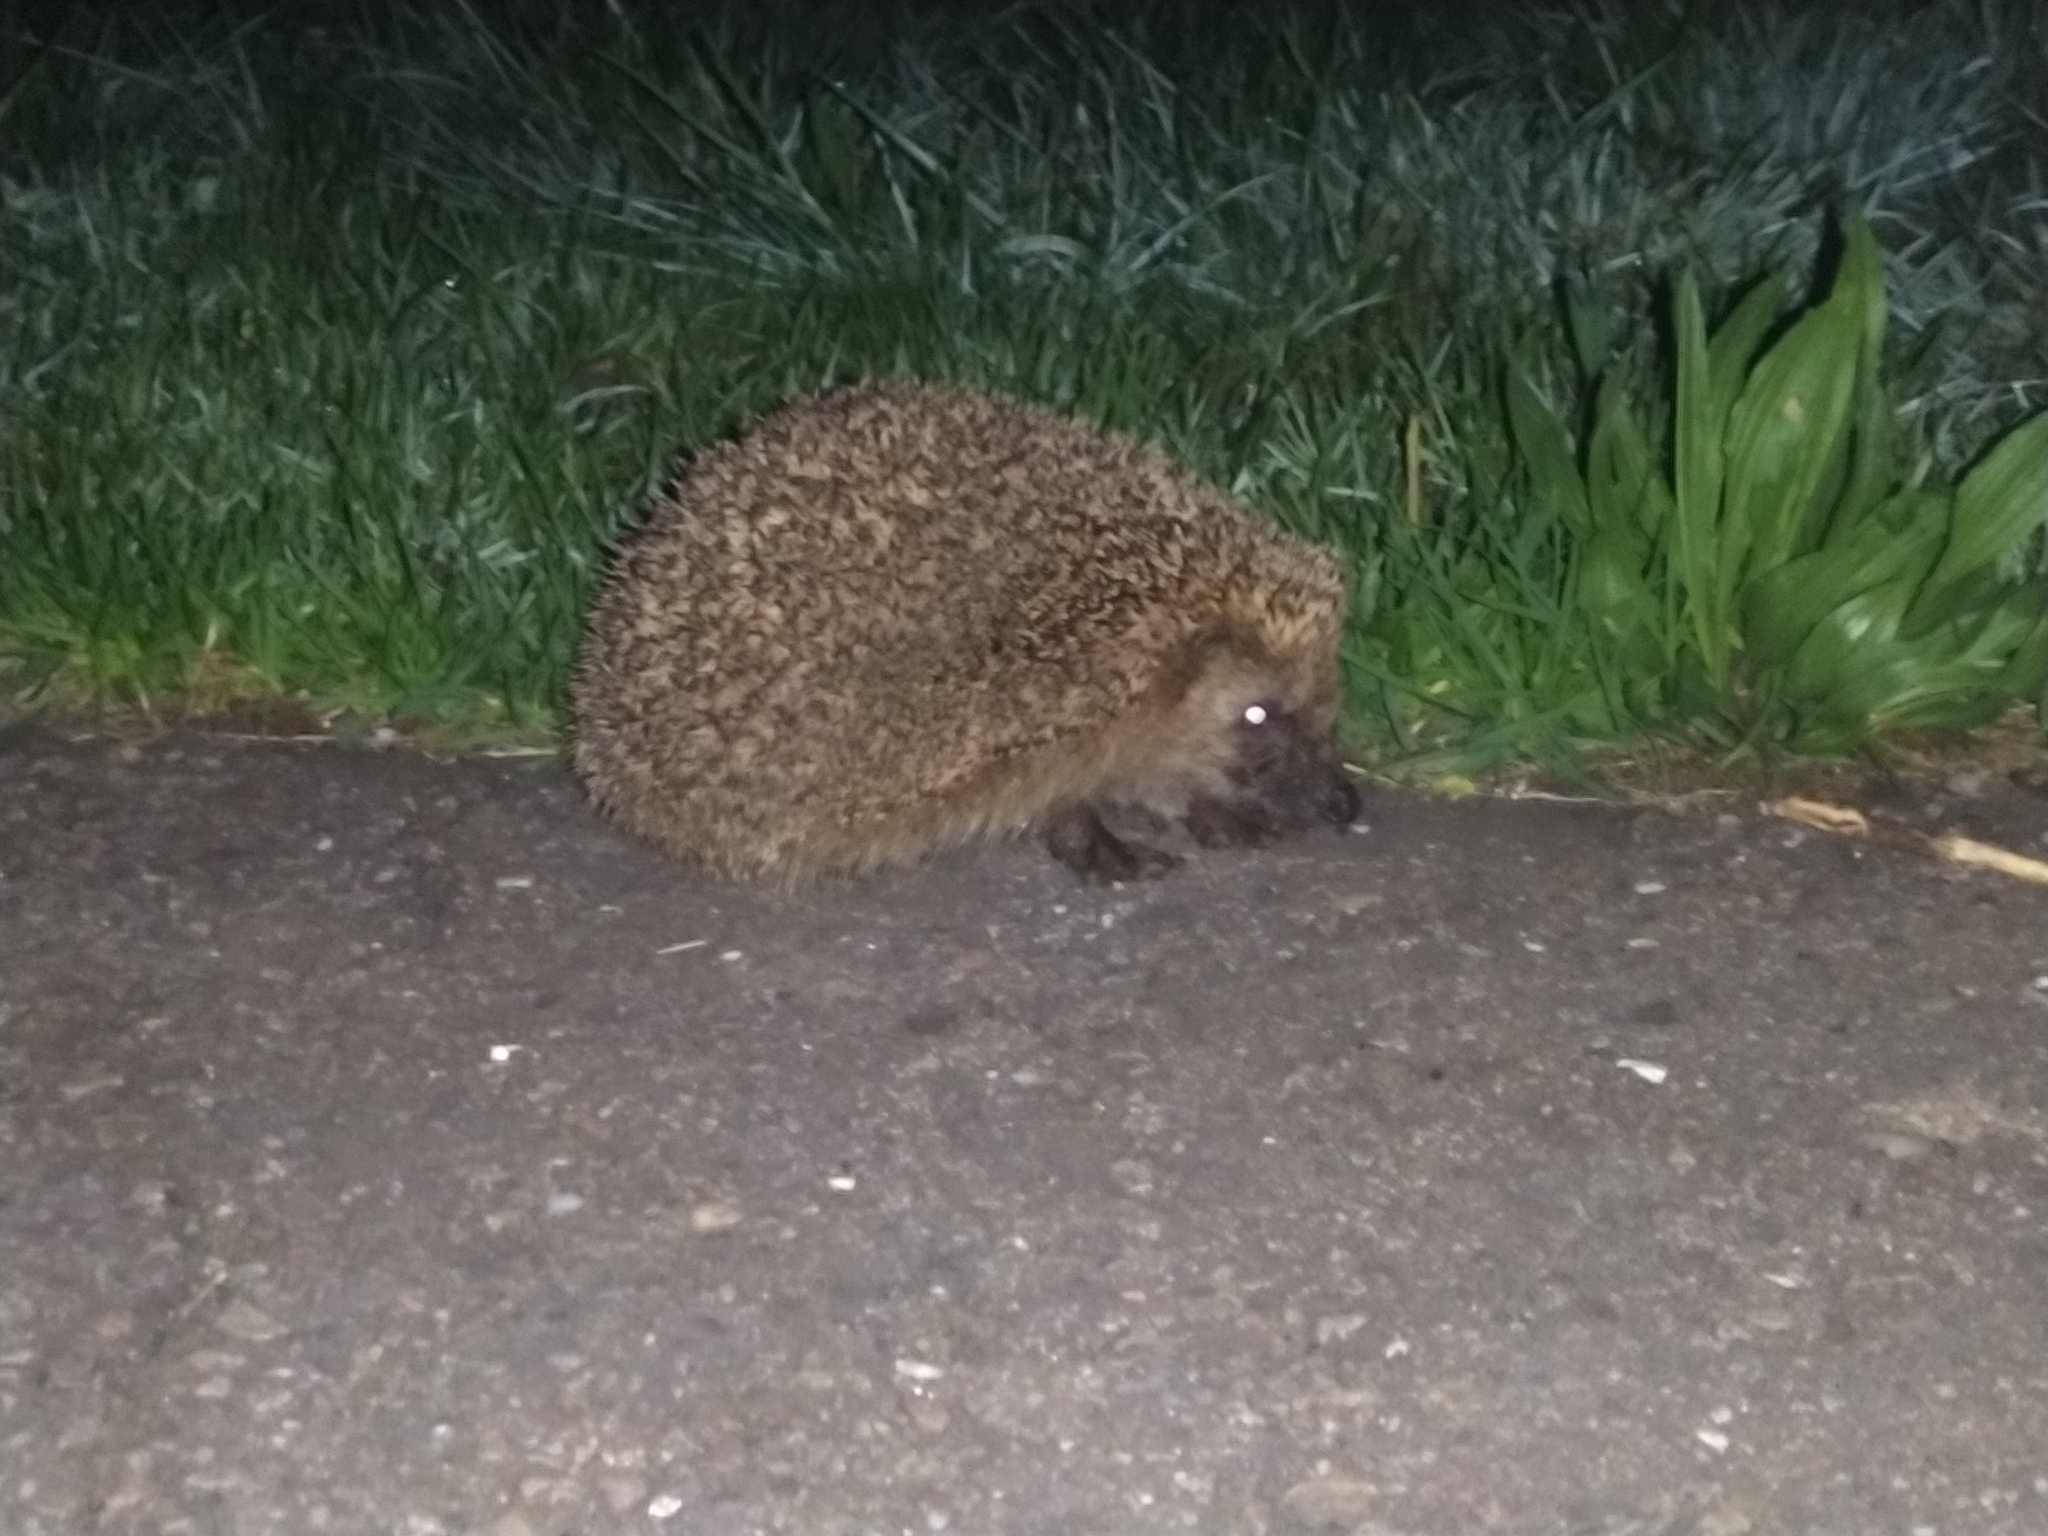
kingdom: Animalia
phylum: Chordata
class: Mammalia
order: Erinaceomorpha
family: Erinaceidae
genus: Erinaceus
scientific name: Erinaceus europaeus
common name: West european hedgehog
